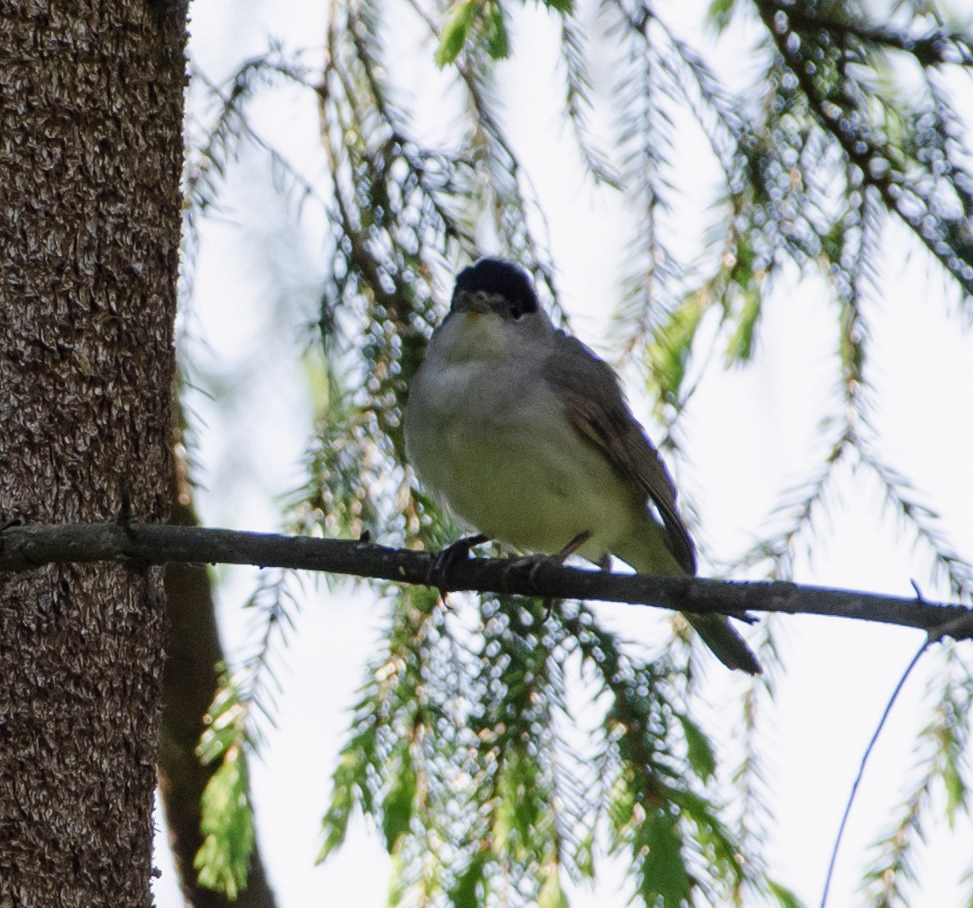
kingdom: Animalia
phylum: Chordata
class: Aves
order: Passeriformes
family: Sylviidae
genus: Sylvia
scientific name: Sylvia atricapilla
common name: Eurasian blackcap
